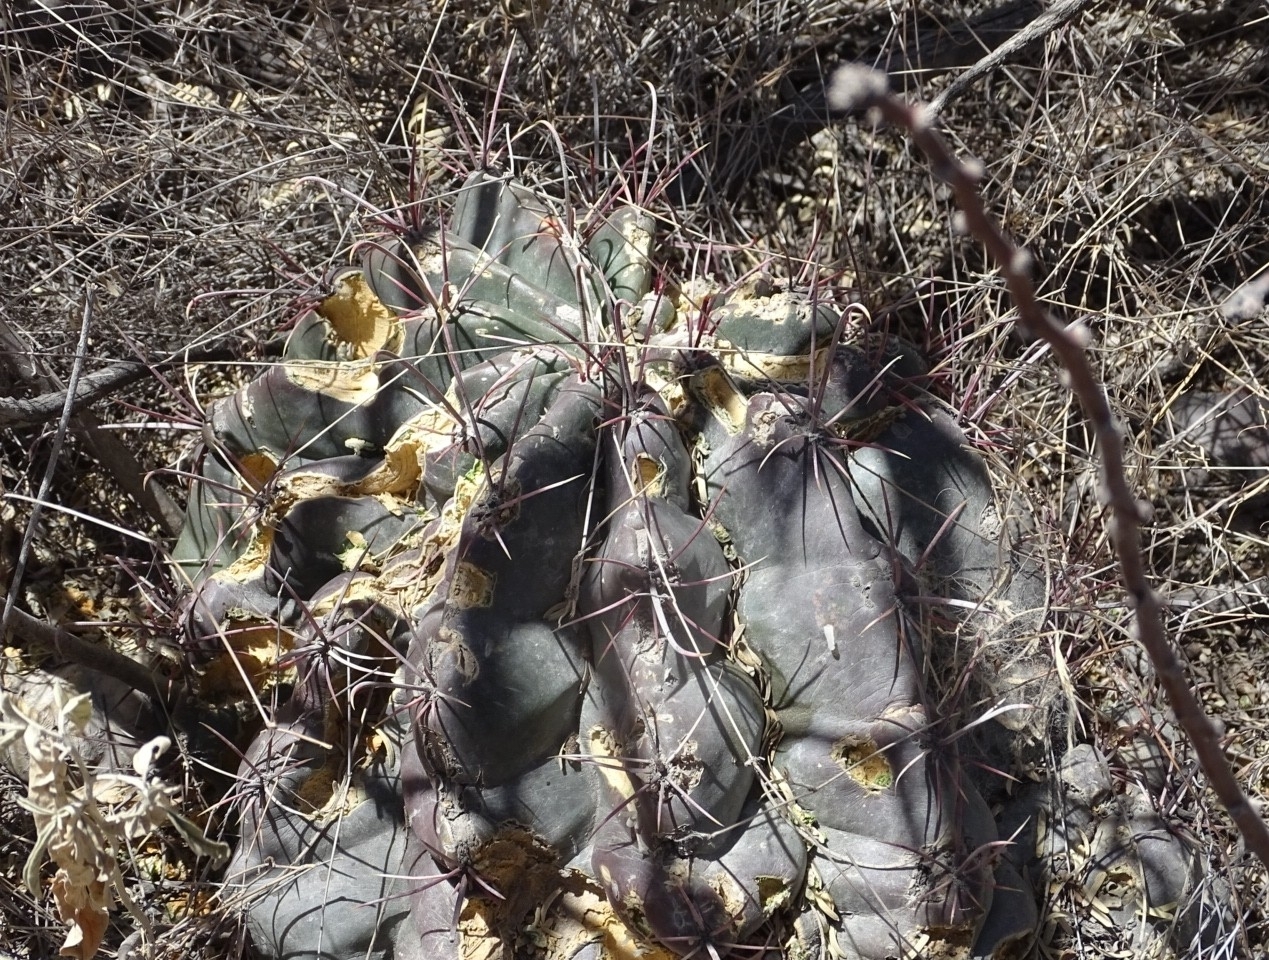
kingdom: Plantae
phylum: Tracheophyta
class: Magnoliopsida
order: Caryophyllales
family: Cactaceae
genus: Bisnaga
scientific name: Bisnaga hamatacantha
